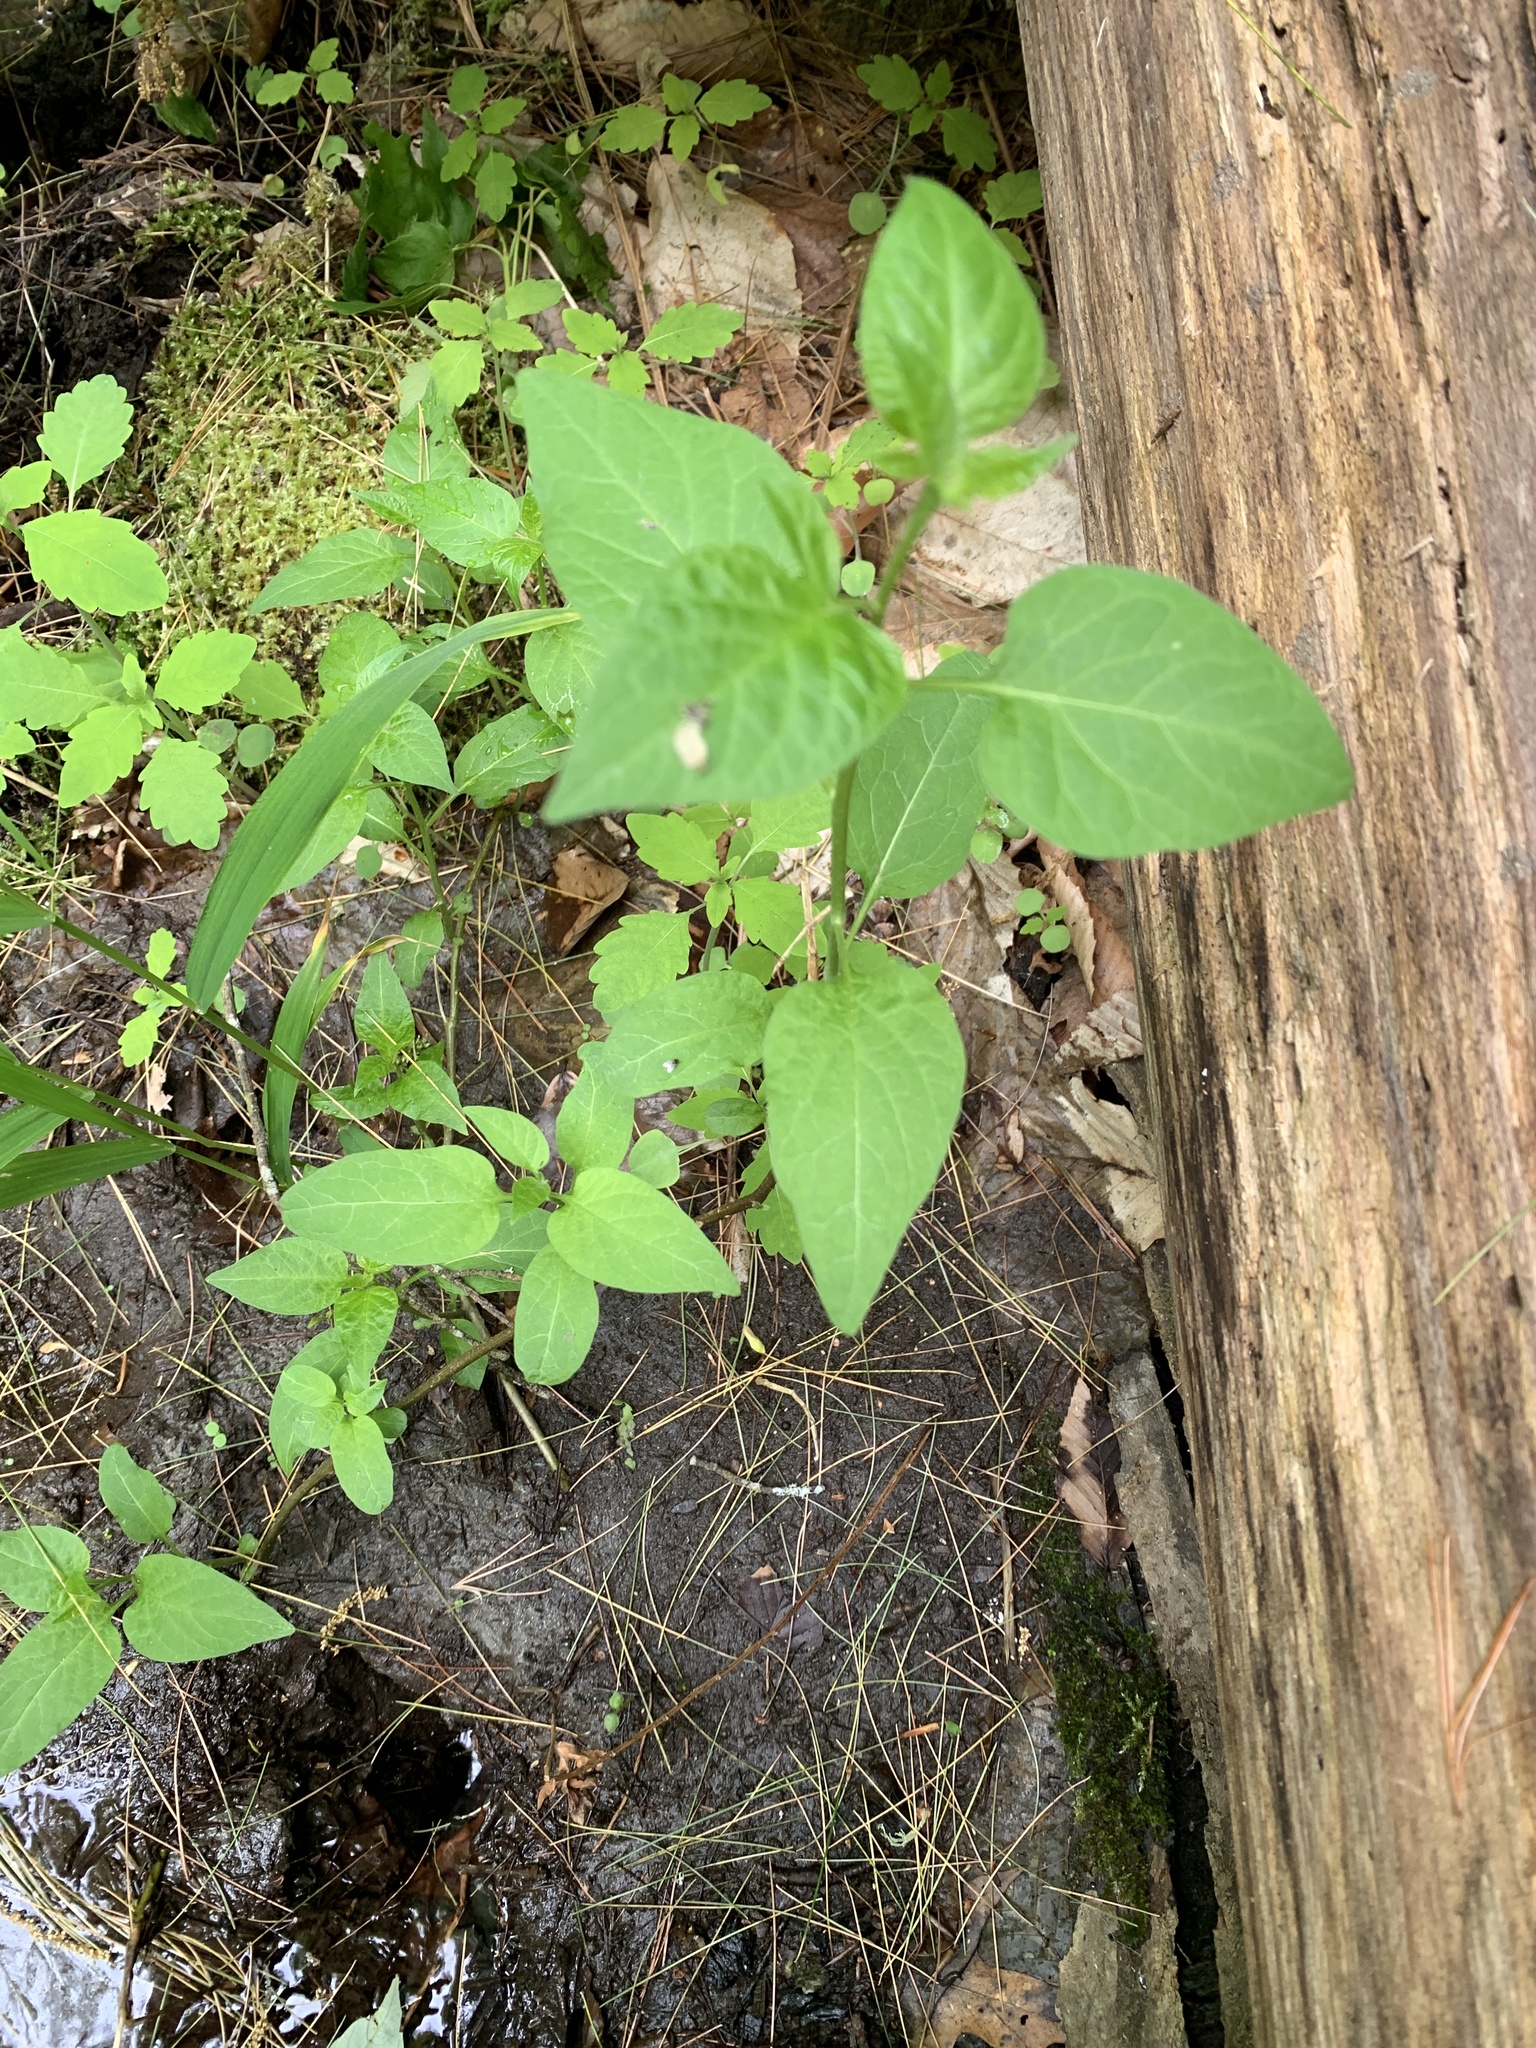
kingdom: Plantae
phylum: Tracheophyta
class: Magnoliopsida
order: Solanales
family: Solanaceae
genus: Solanum
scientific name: Solanum dulcamara
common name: Climbing nightshade
